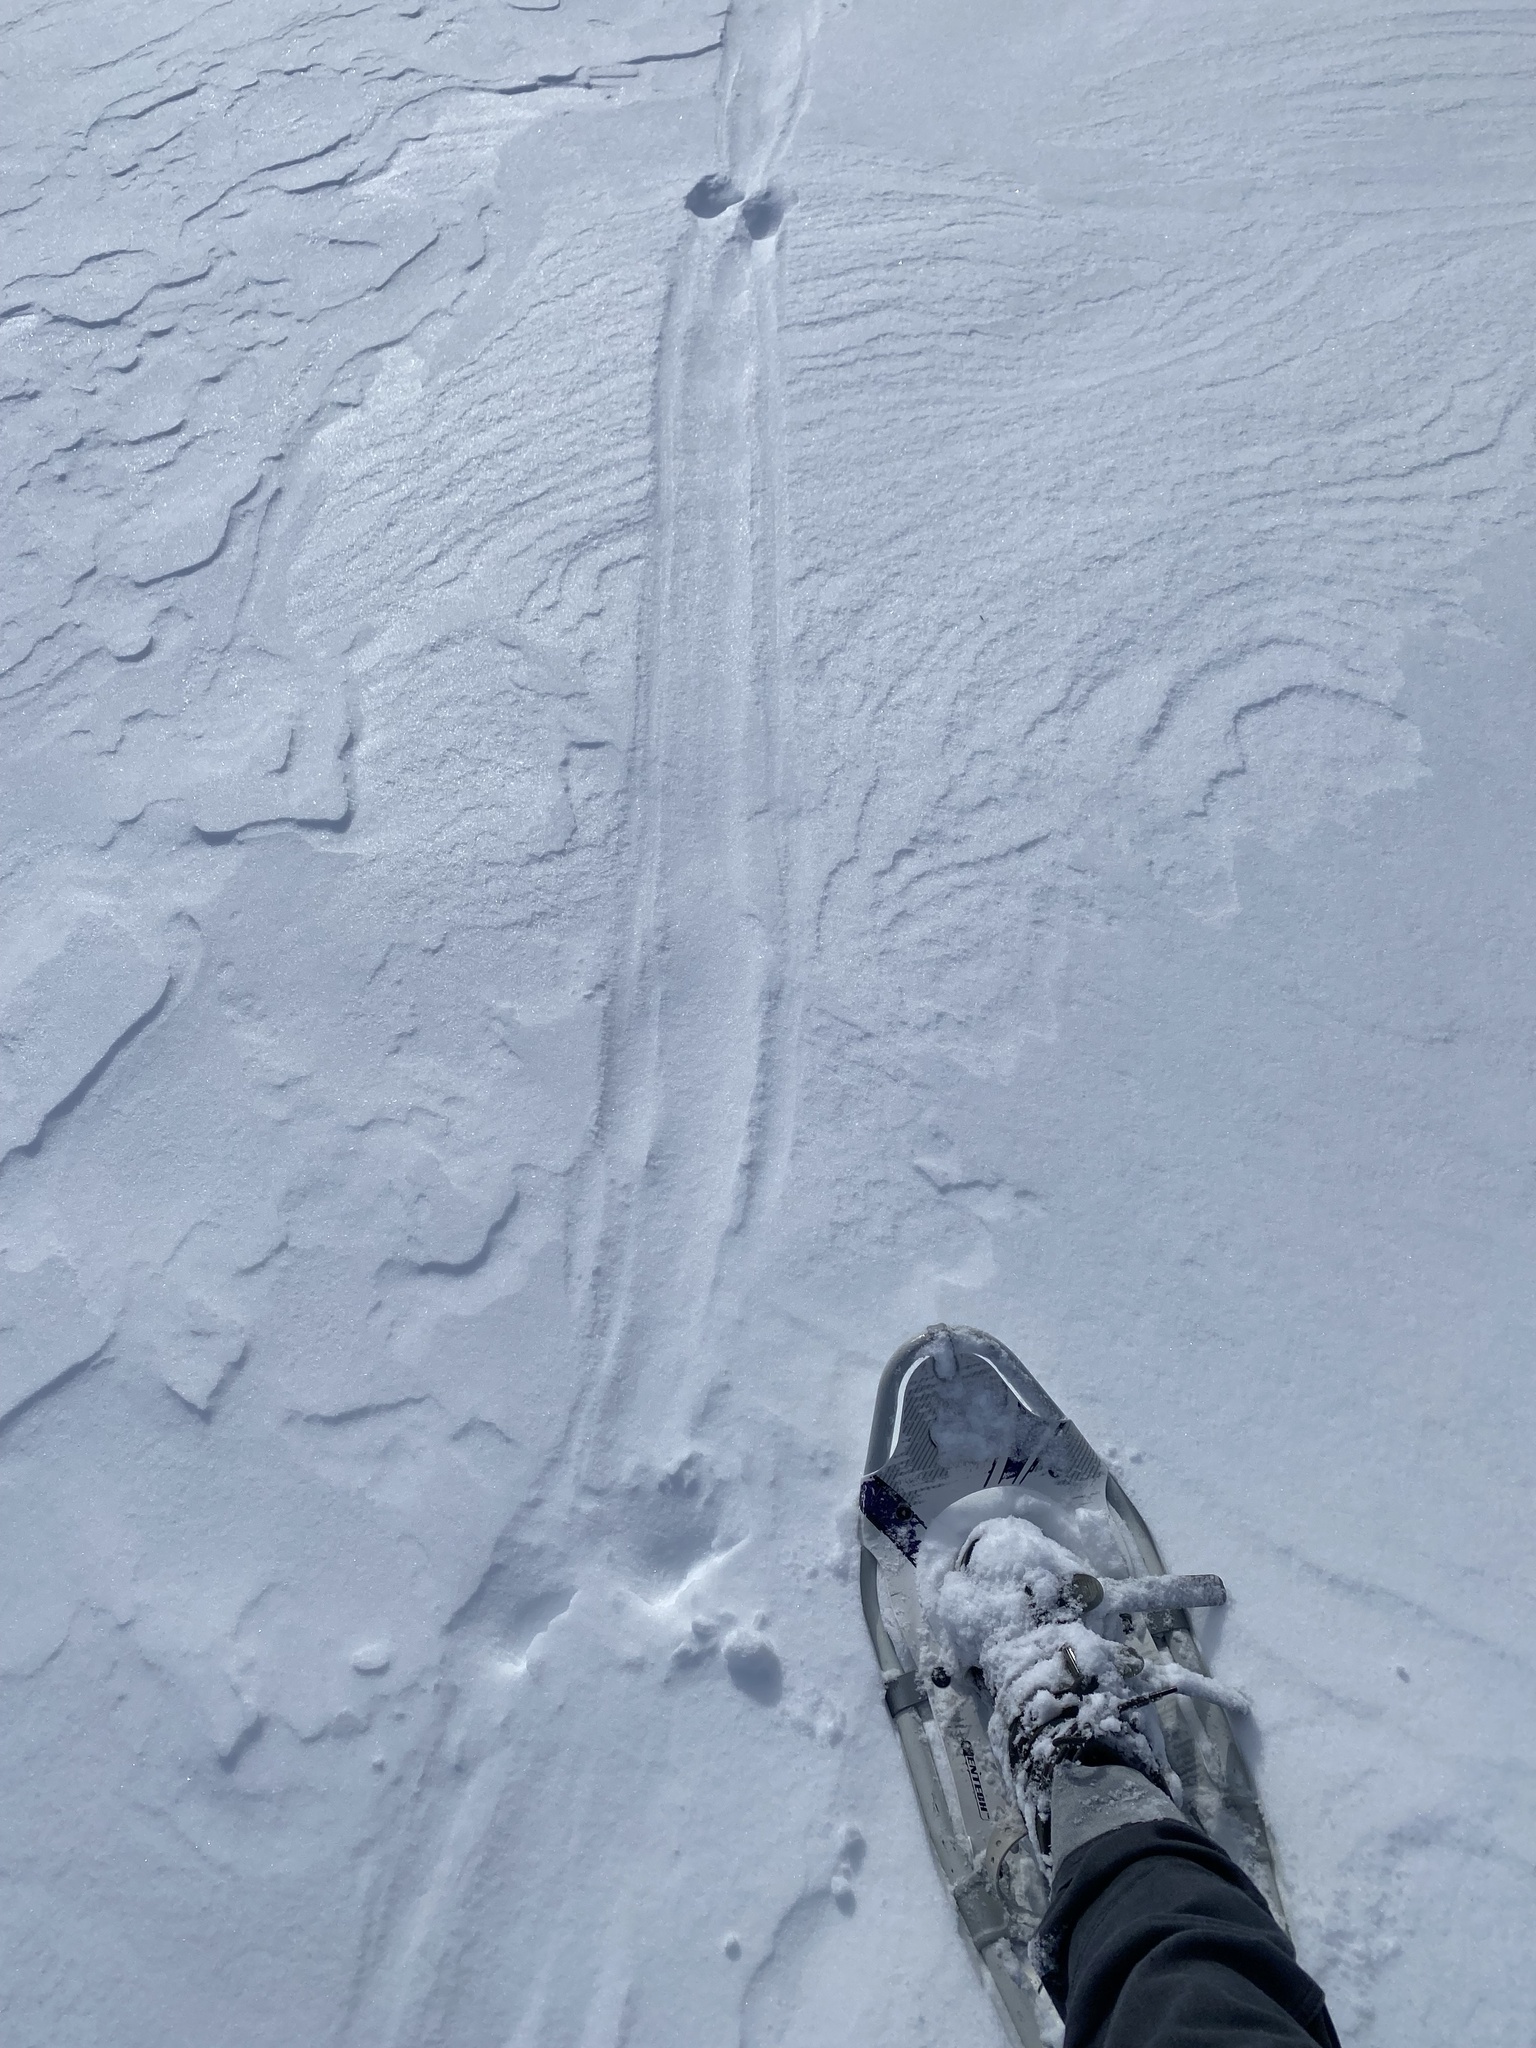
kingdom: Animalia
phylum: Chordata
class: Mammalia
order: Carnivora
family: Mustelidae
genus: Lontra
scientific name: Lontra canadensis
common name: North american river otter
